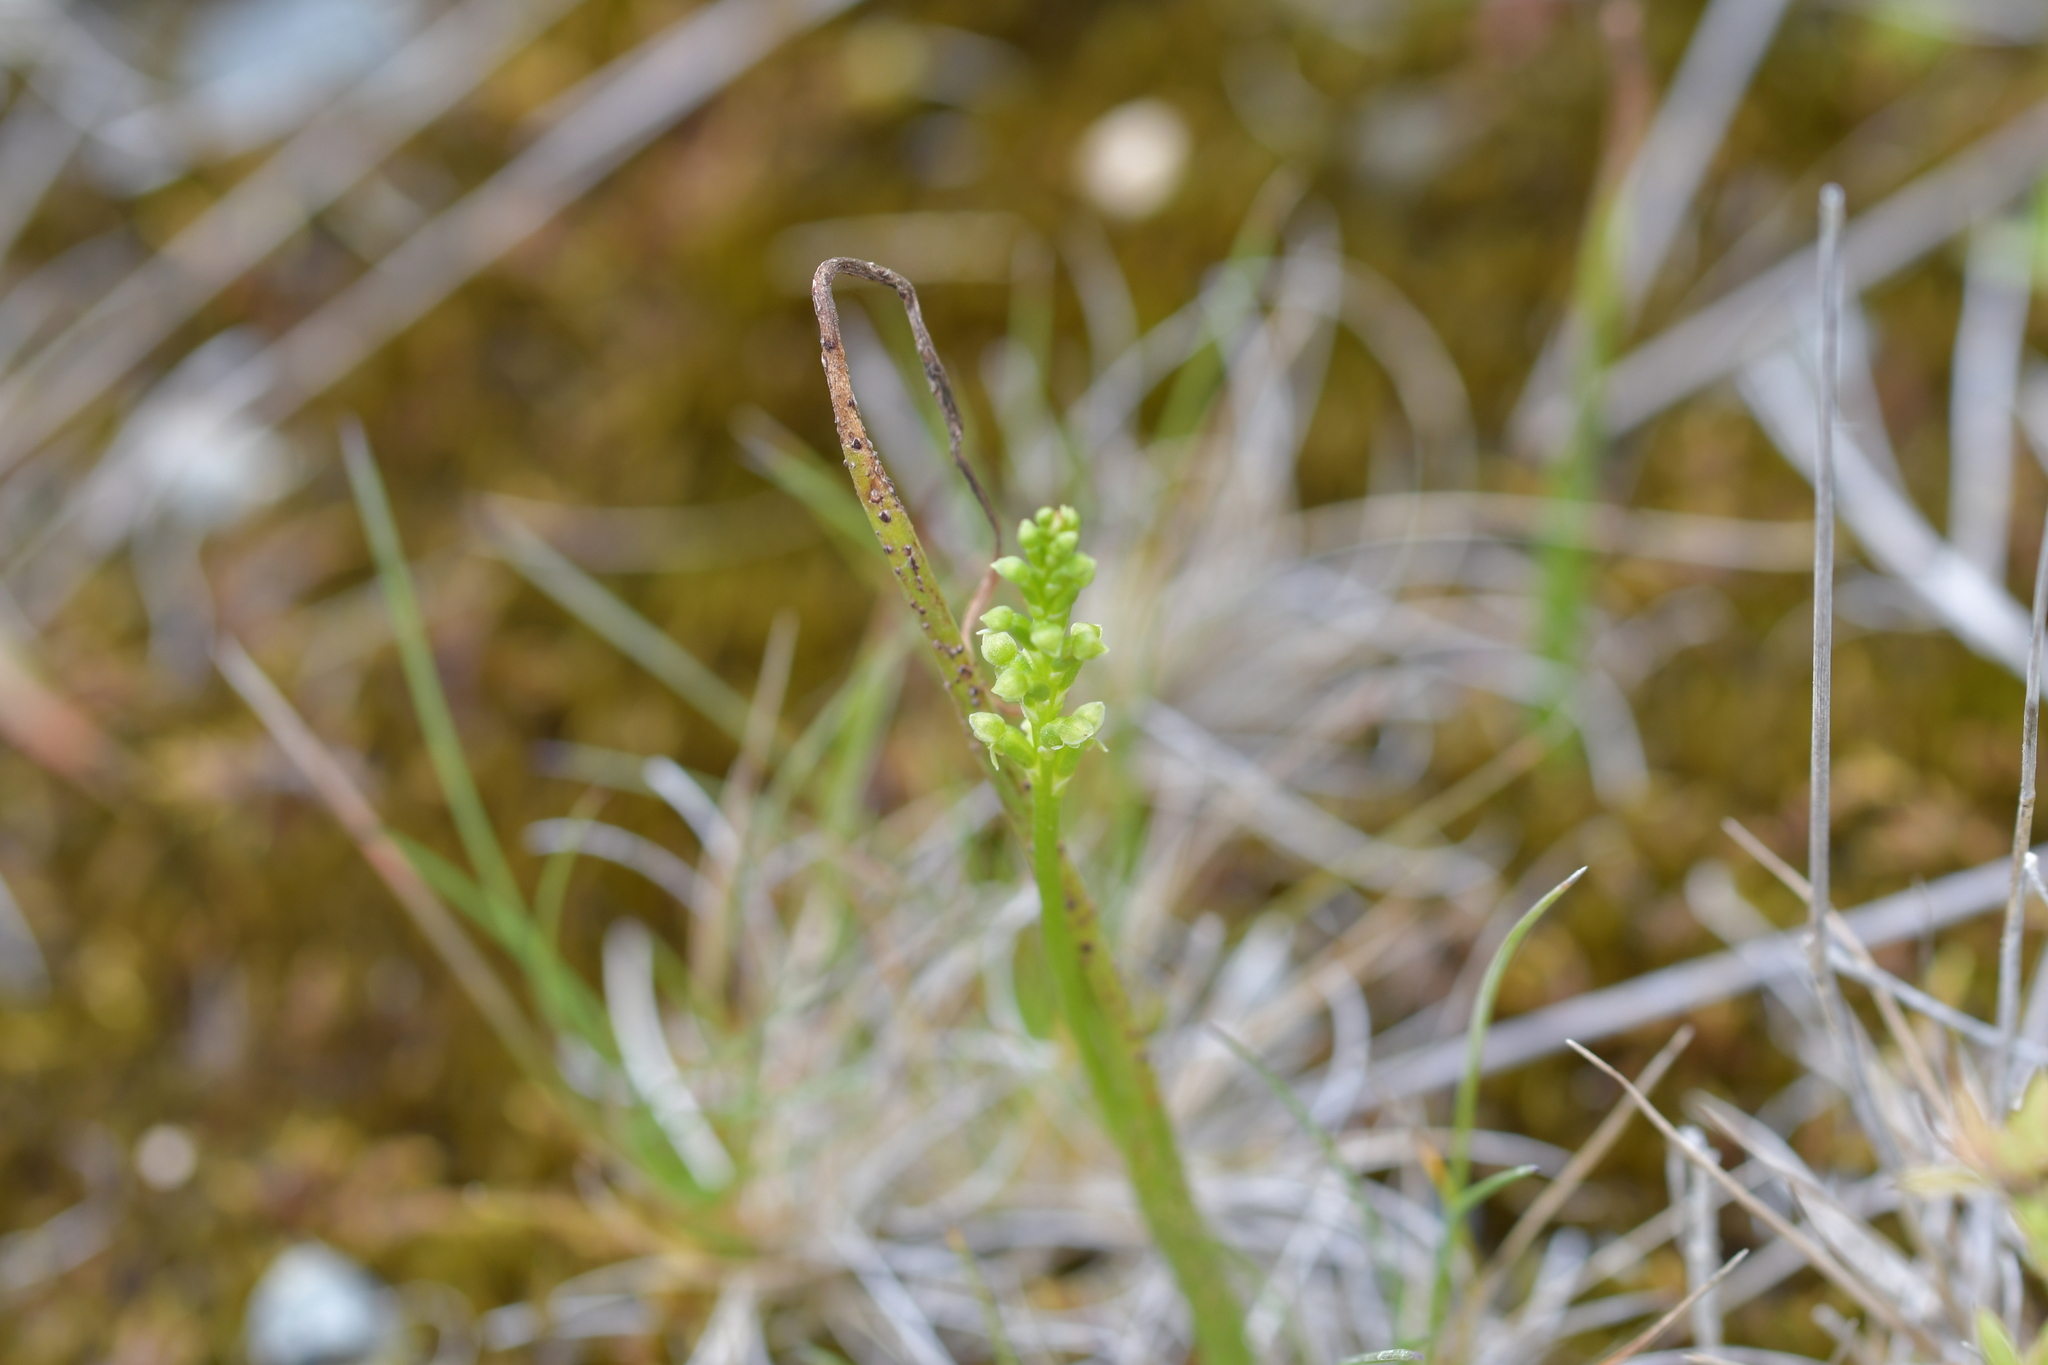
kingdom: Plantae
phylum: Tracheophyta
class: Liliopsida
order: Asparagales
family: Orchidaceae
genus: Microtis
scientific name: Microtis unifolia
